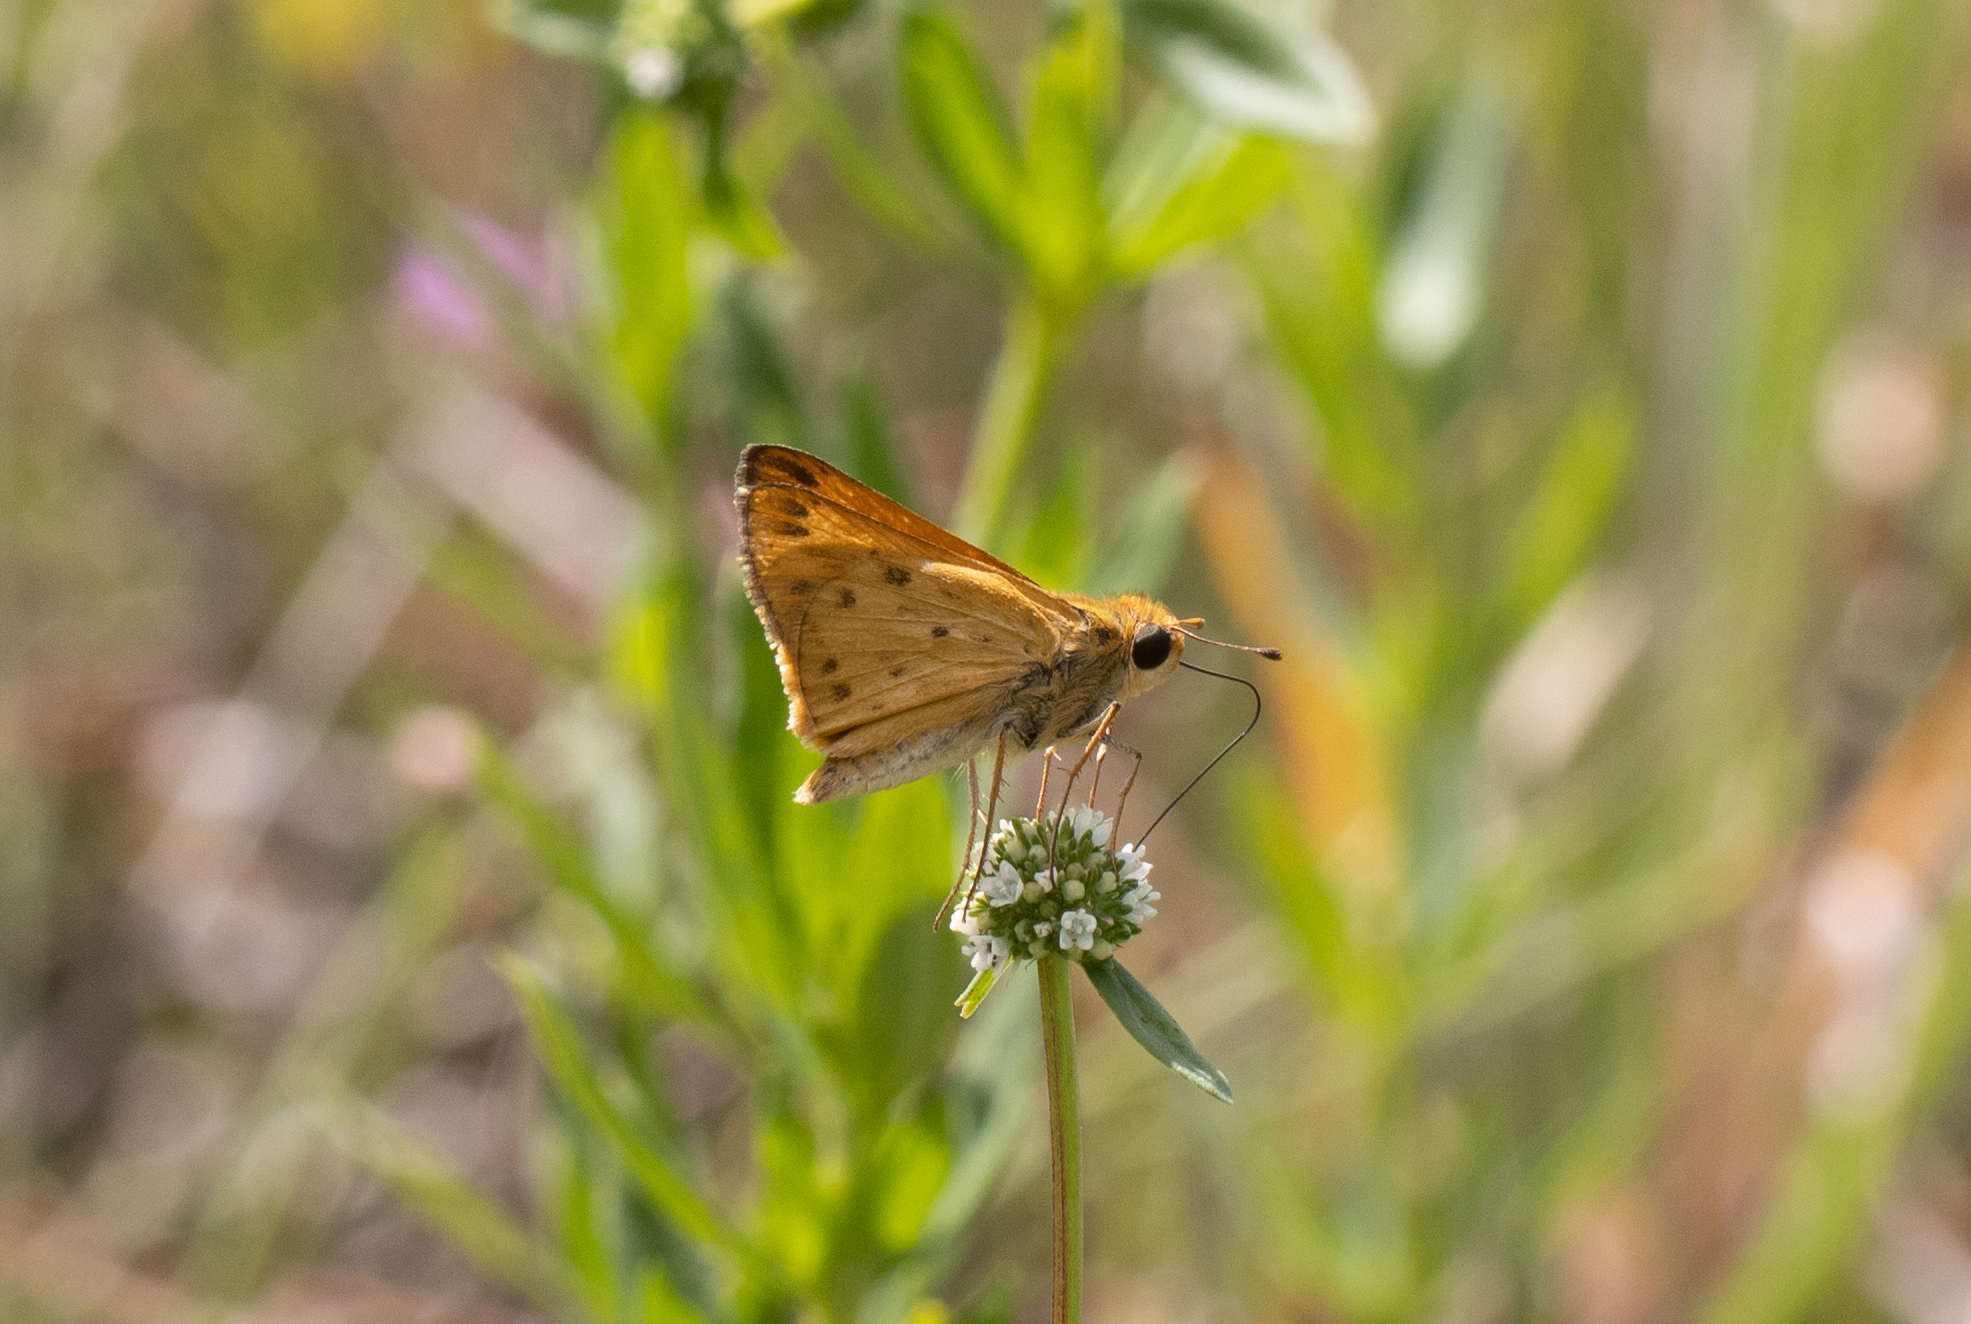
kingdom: Animalia
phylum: Arthropoda
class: Insecta
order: Lepidoptera
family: Hesperiidae
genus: Hylephila
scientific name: Hylephila phyleus
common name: Fiery skipper
